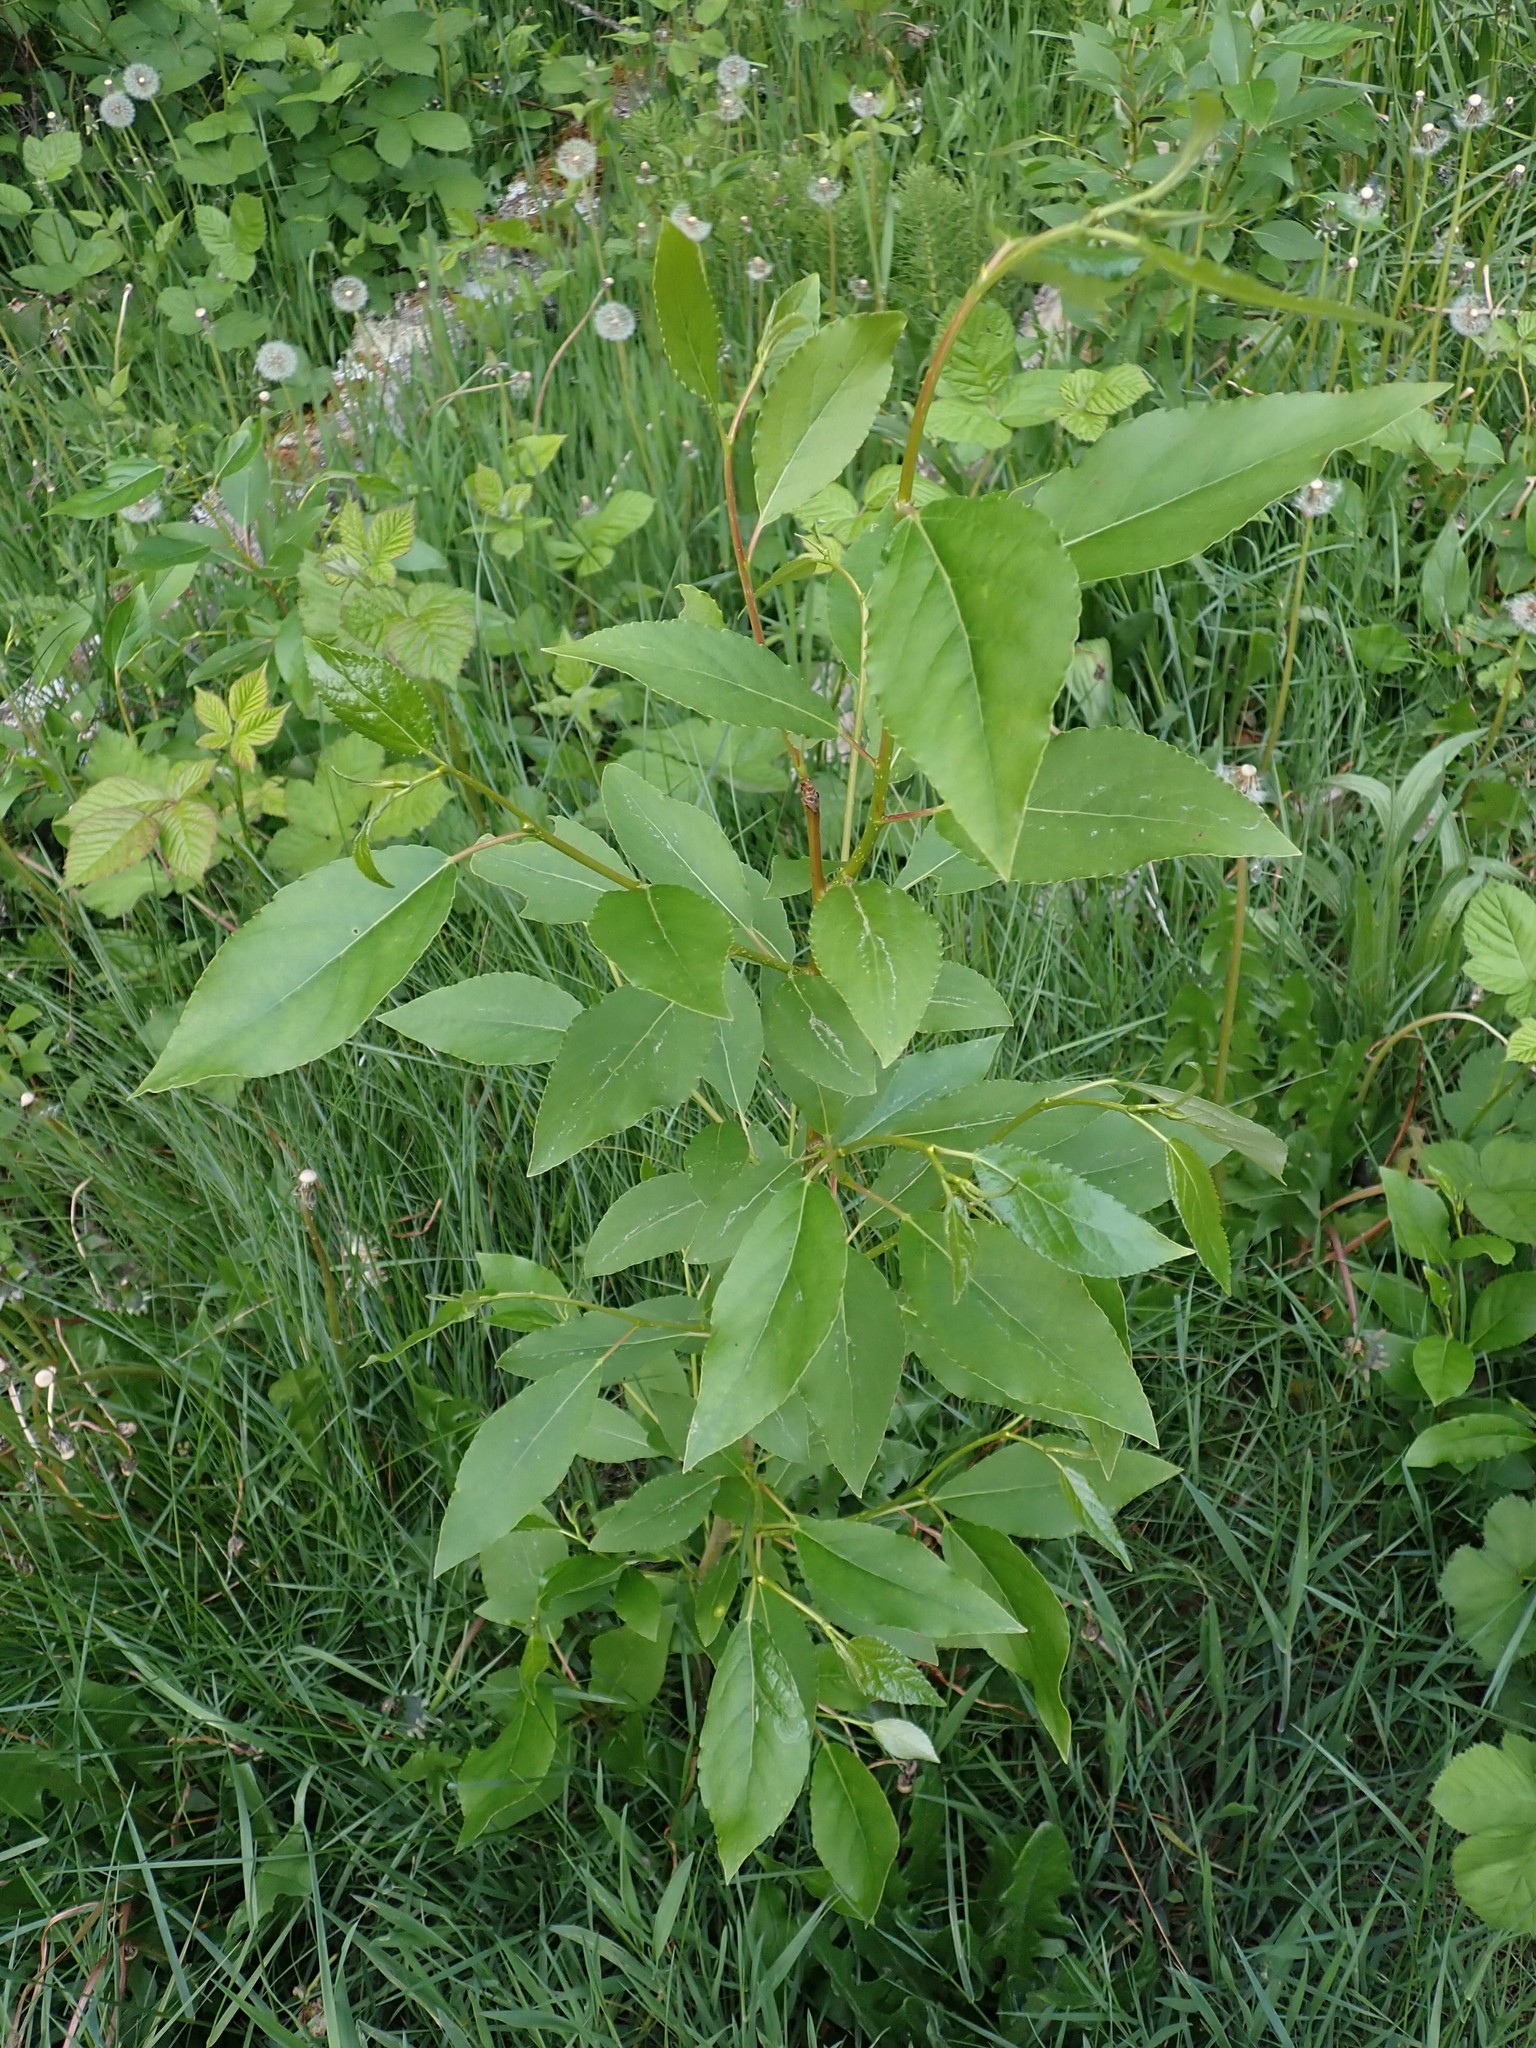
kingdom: Plantae
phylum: Tracheophyta
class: Magnoliopsida
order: Malpighiales
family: Salicaceae
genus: Populus
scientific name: Populus trichocarpa
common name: Black cottonwood
